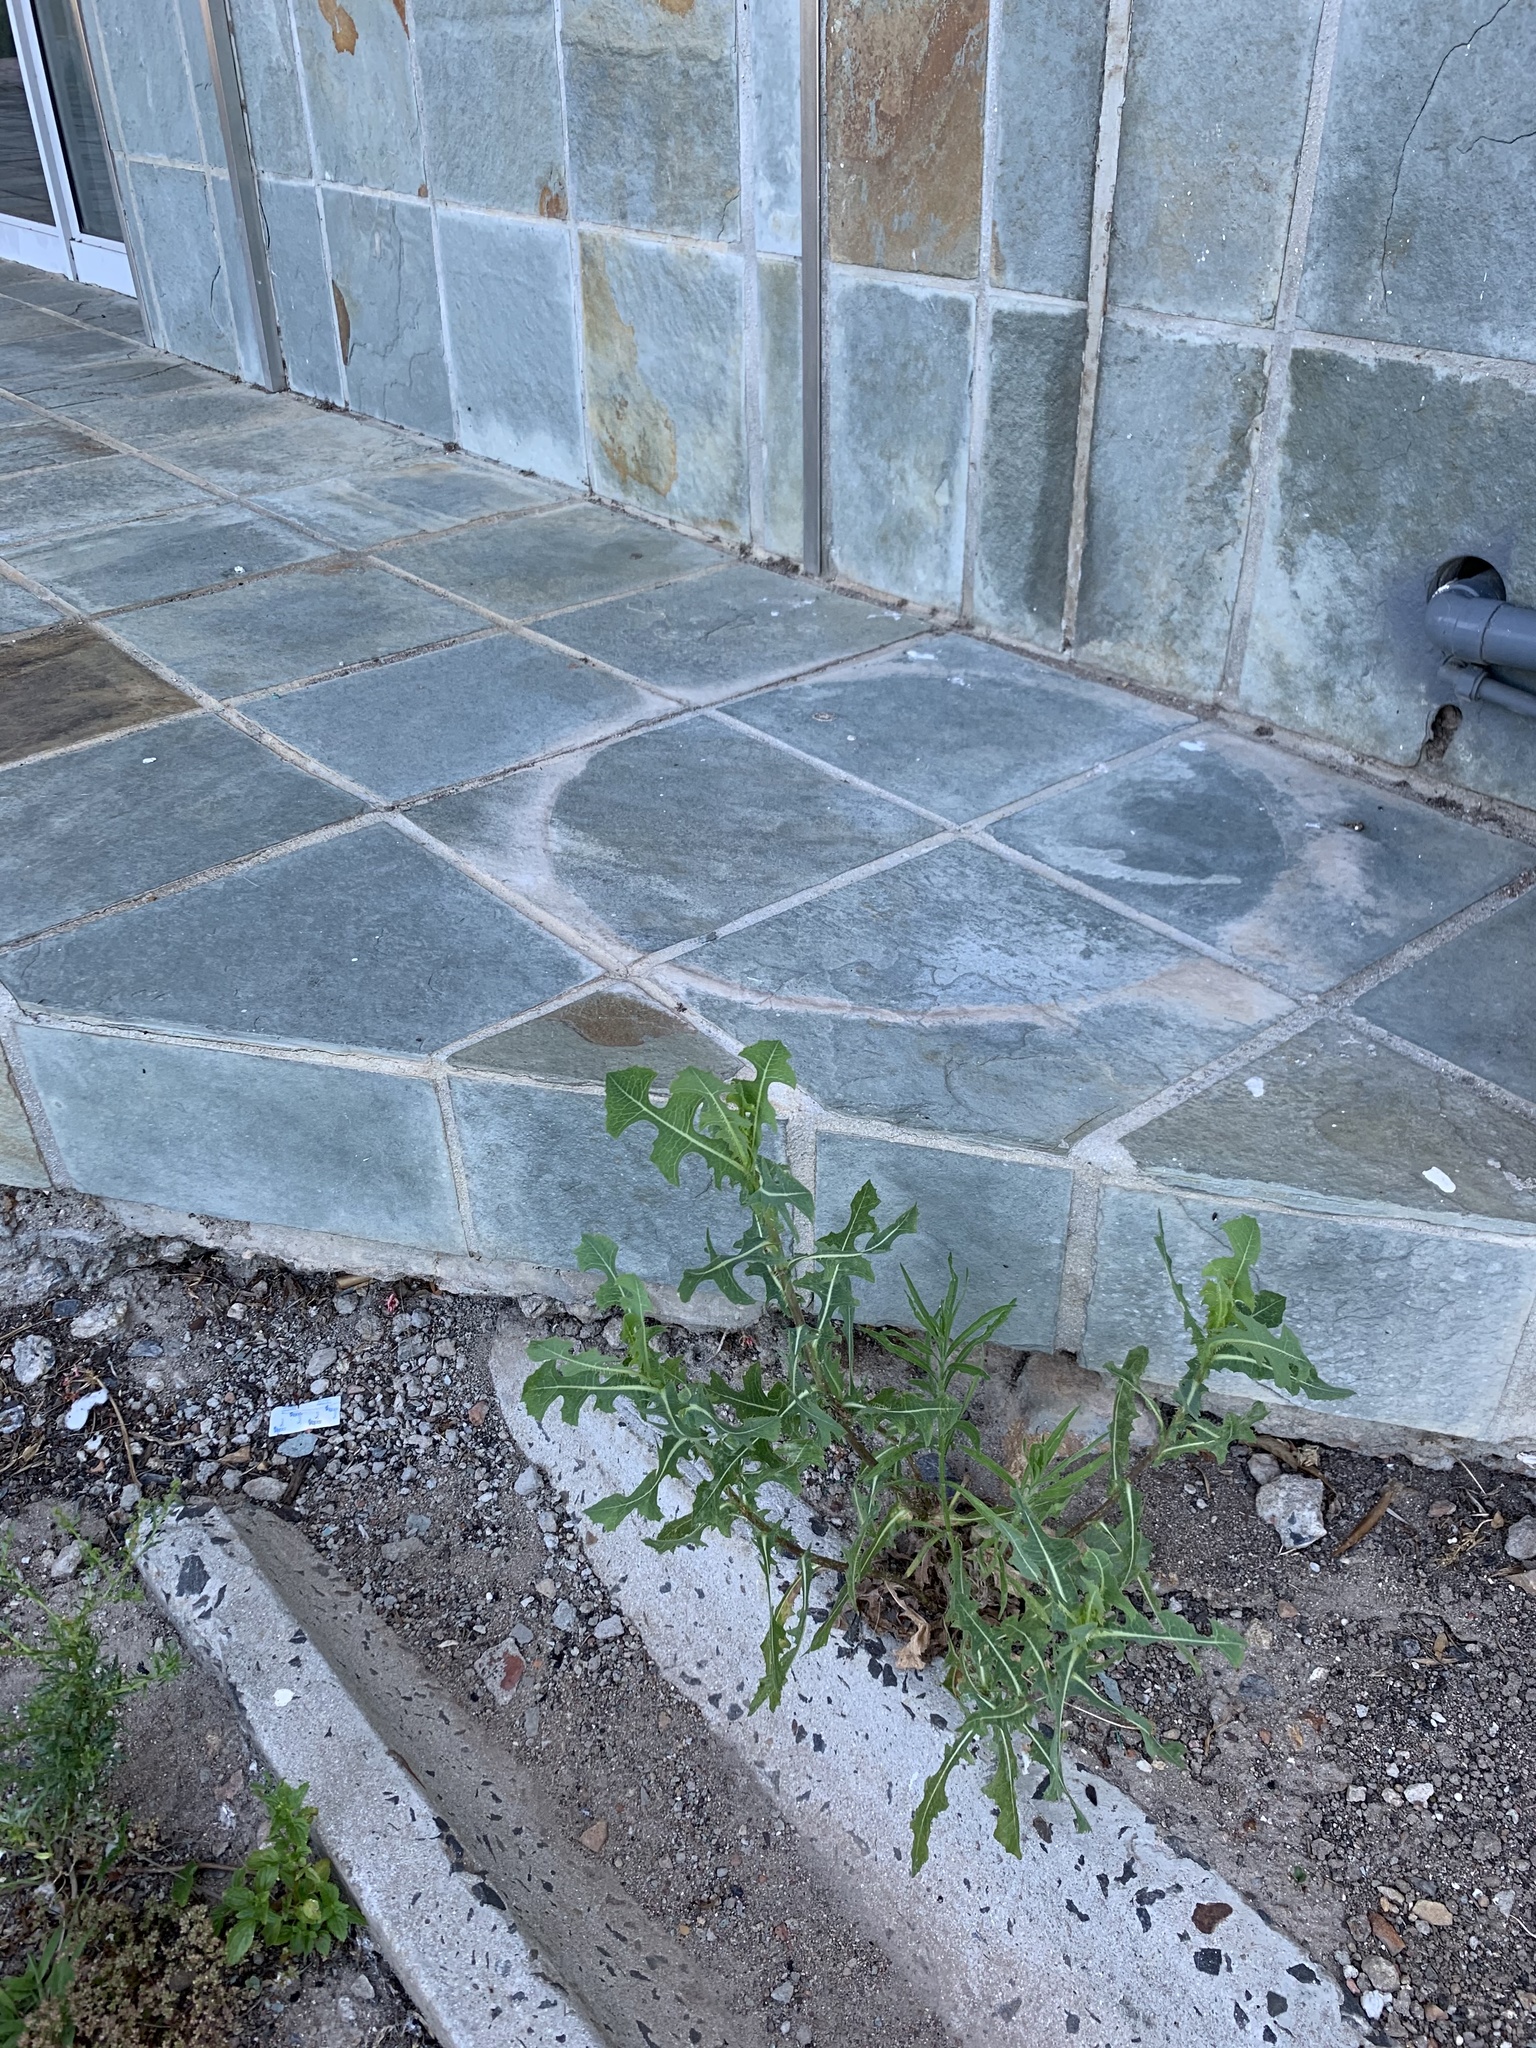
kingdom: Plantae
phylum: Tracheophyta
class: Magnoliopsida
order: Asterales
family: Asteraceae
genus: Lactuca
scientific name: Lactuca serriola
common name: Prickly lettuce
